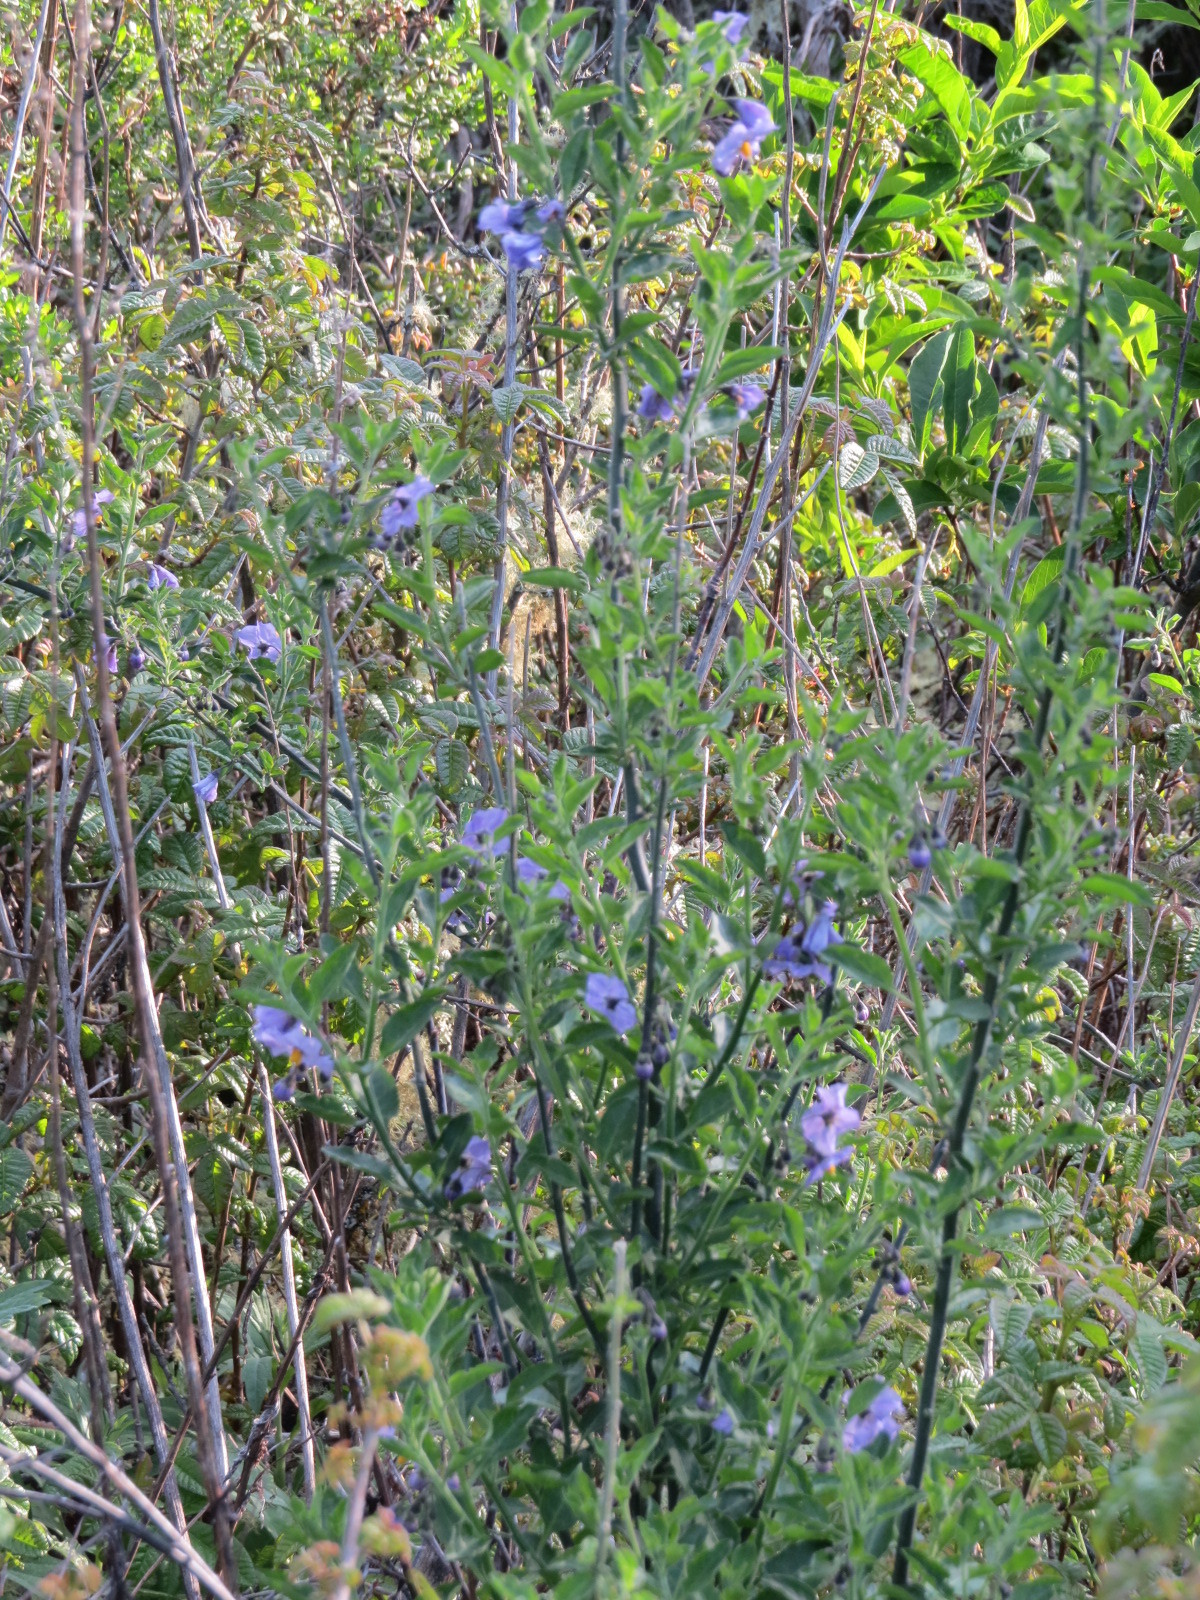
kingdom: Plantae
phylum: Tracheophyta
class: Magnoliopsida
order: Solanales
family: Solanaceae
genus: Solanum
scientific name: Solanum umbelliferum
